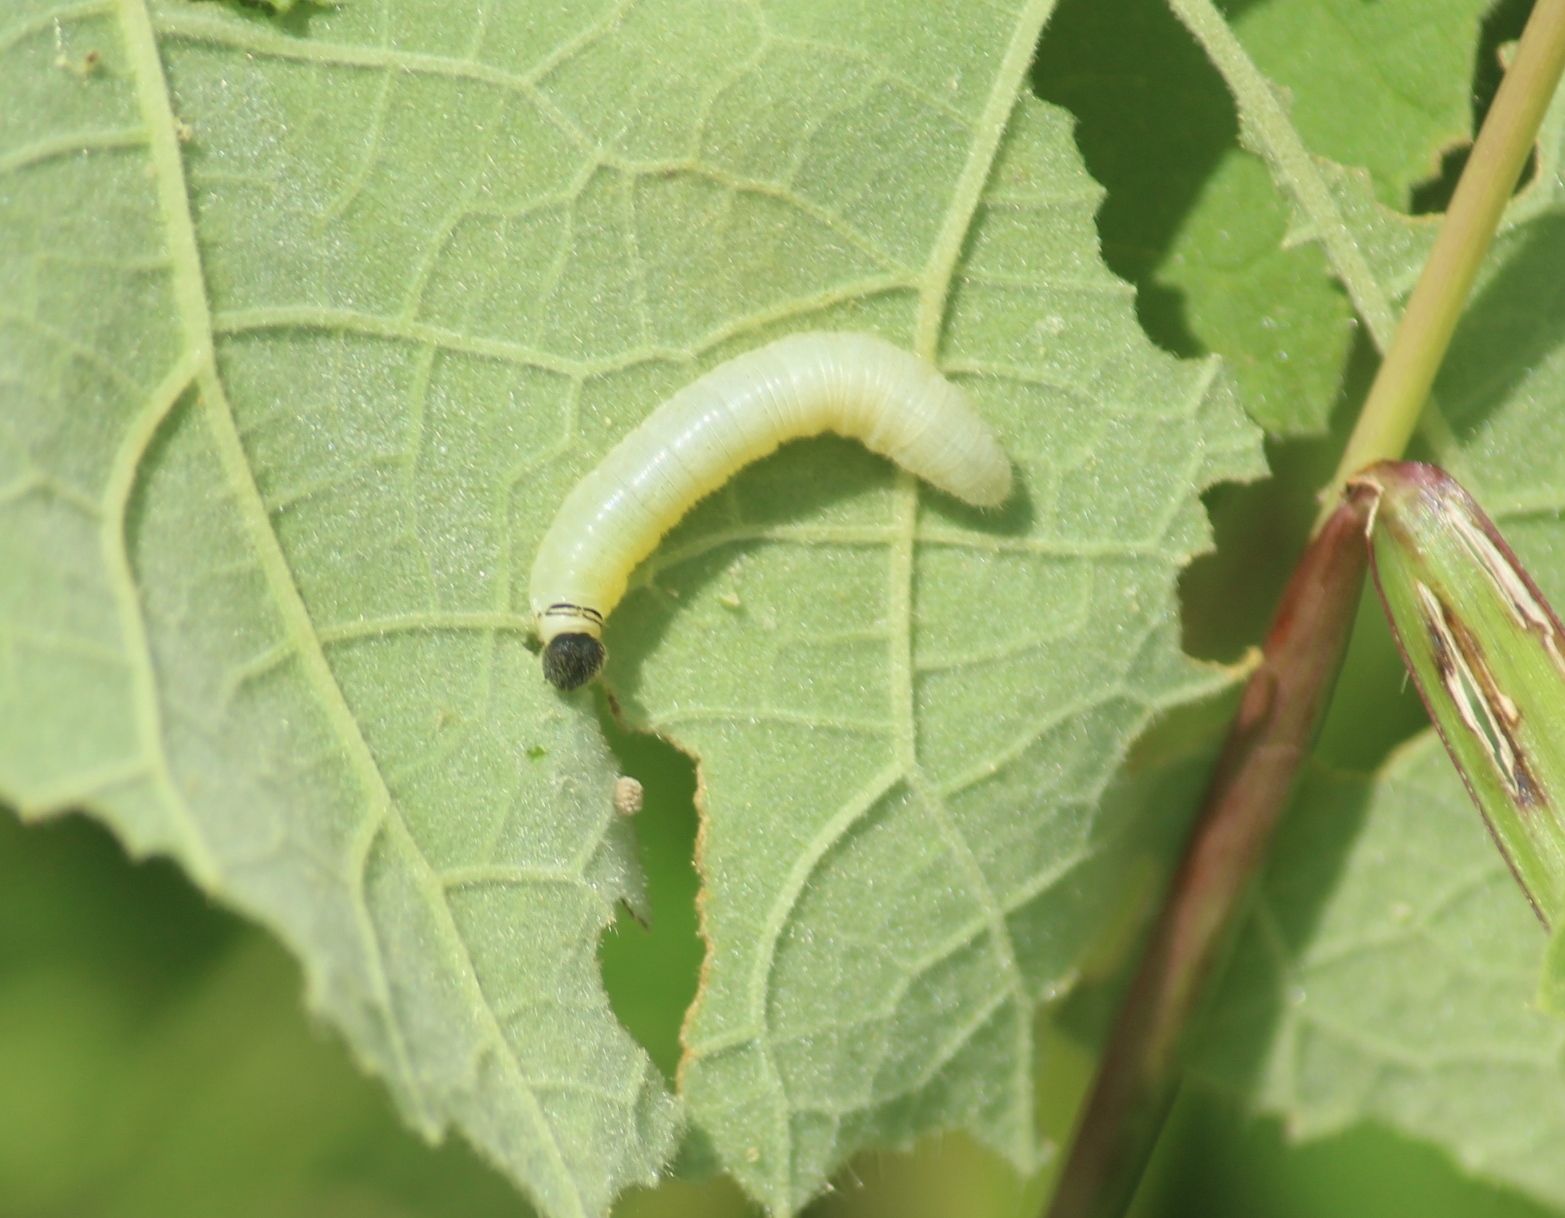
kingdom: Animalia
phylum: Arthropoda
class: Insecta
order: Lepidoptera
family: Hesperiidae
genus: Gomalia
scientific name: Gomalia elma
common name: Green-marbled skipper
